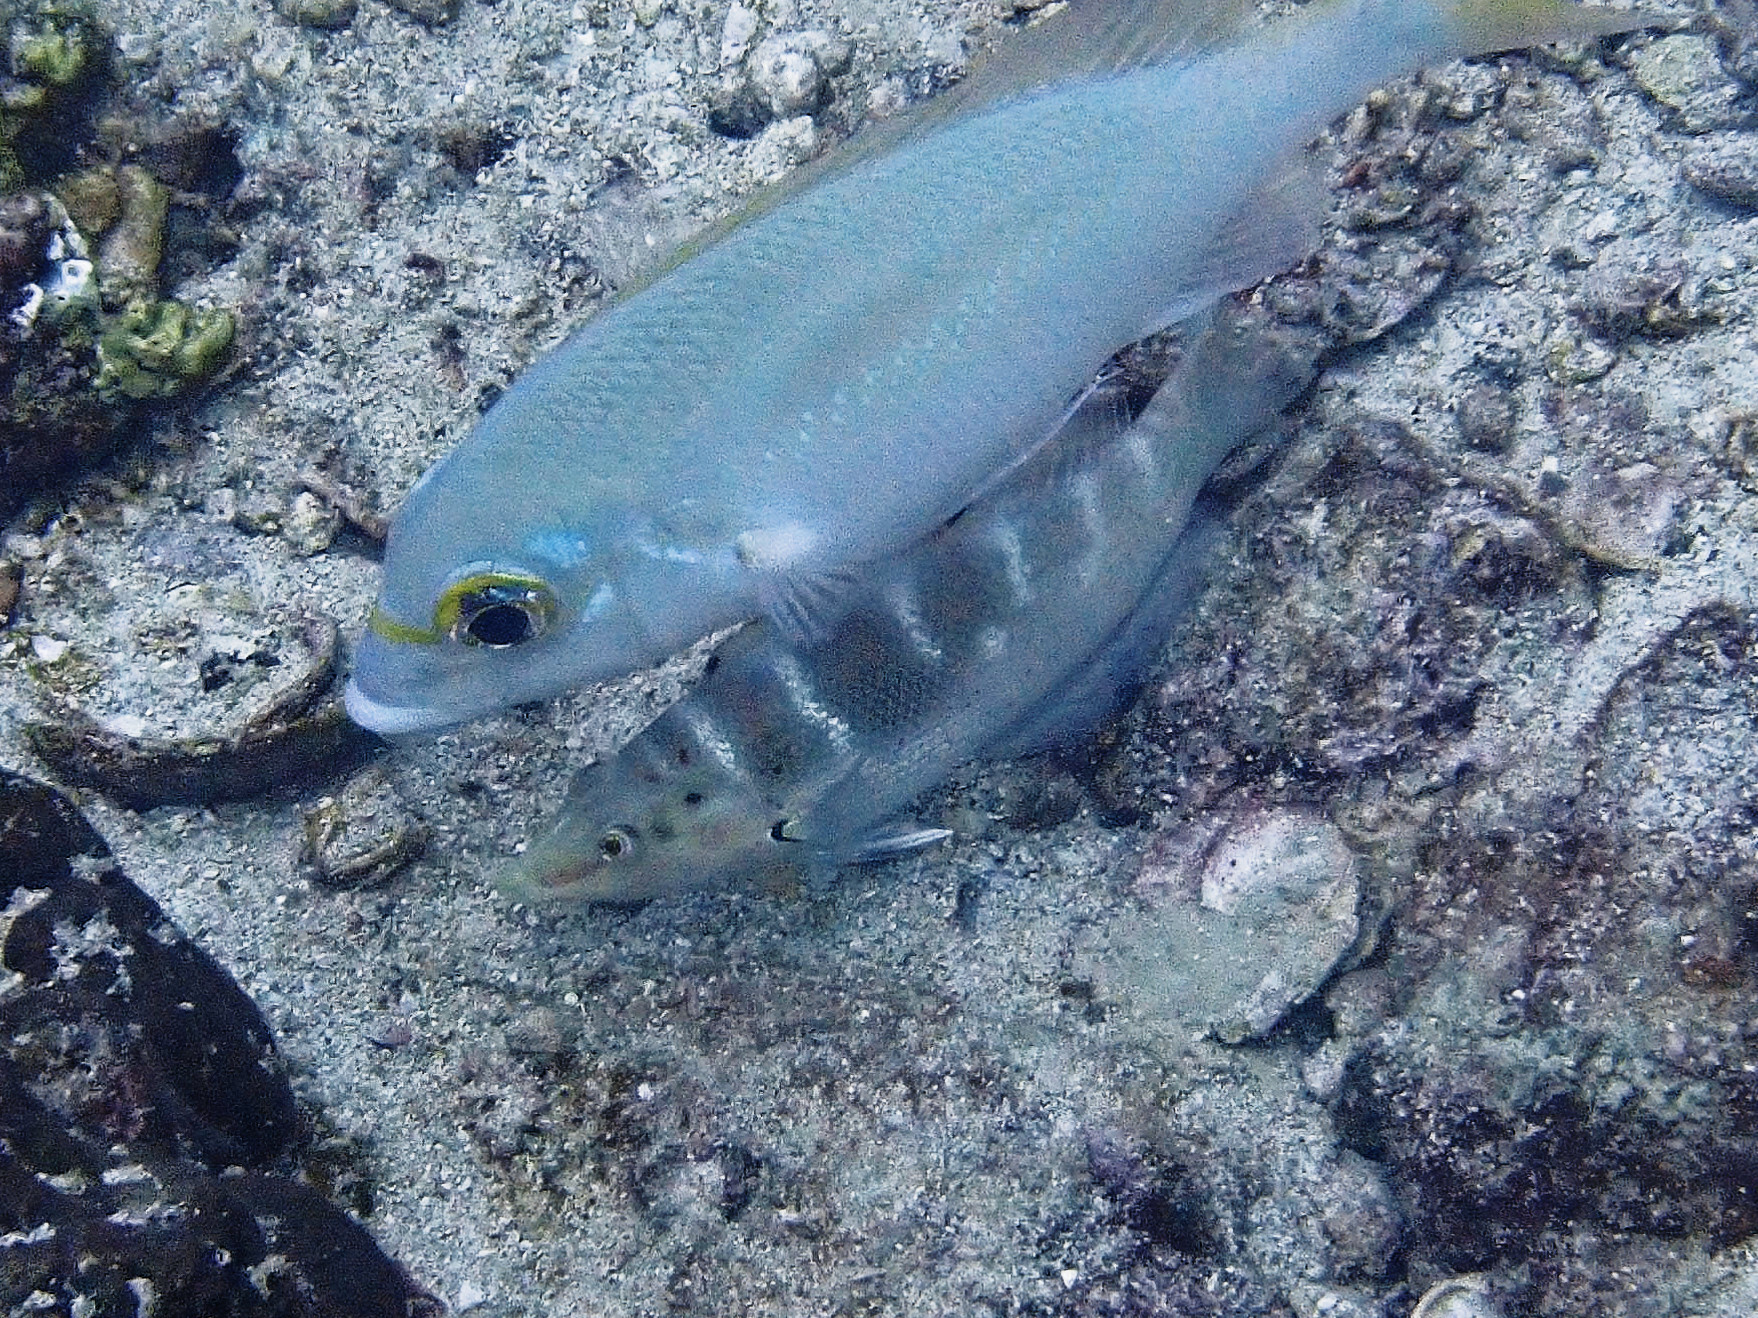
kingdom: Animalia
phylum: Chordata
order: Perciformes
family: Labridae
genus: Coris
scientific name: Coris batuensis
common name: Batu coris
